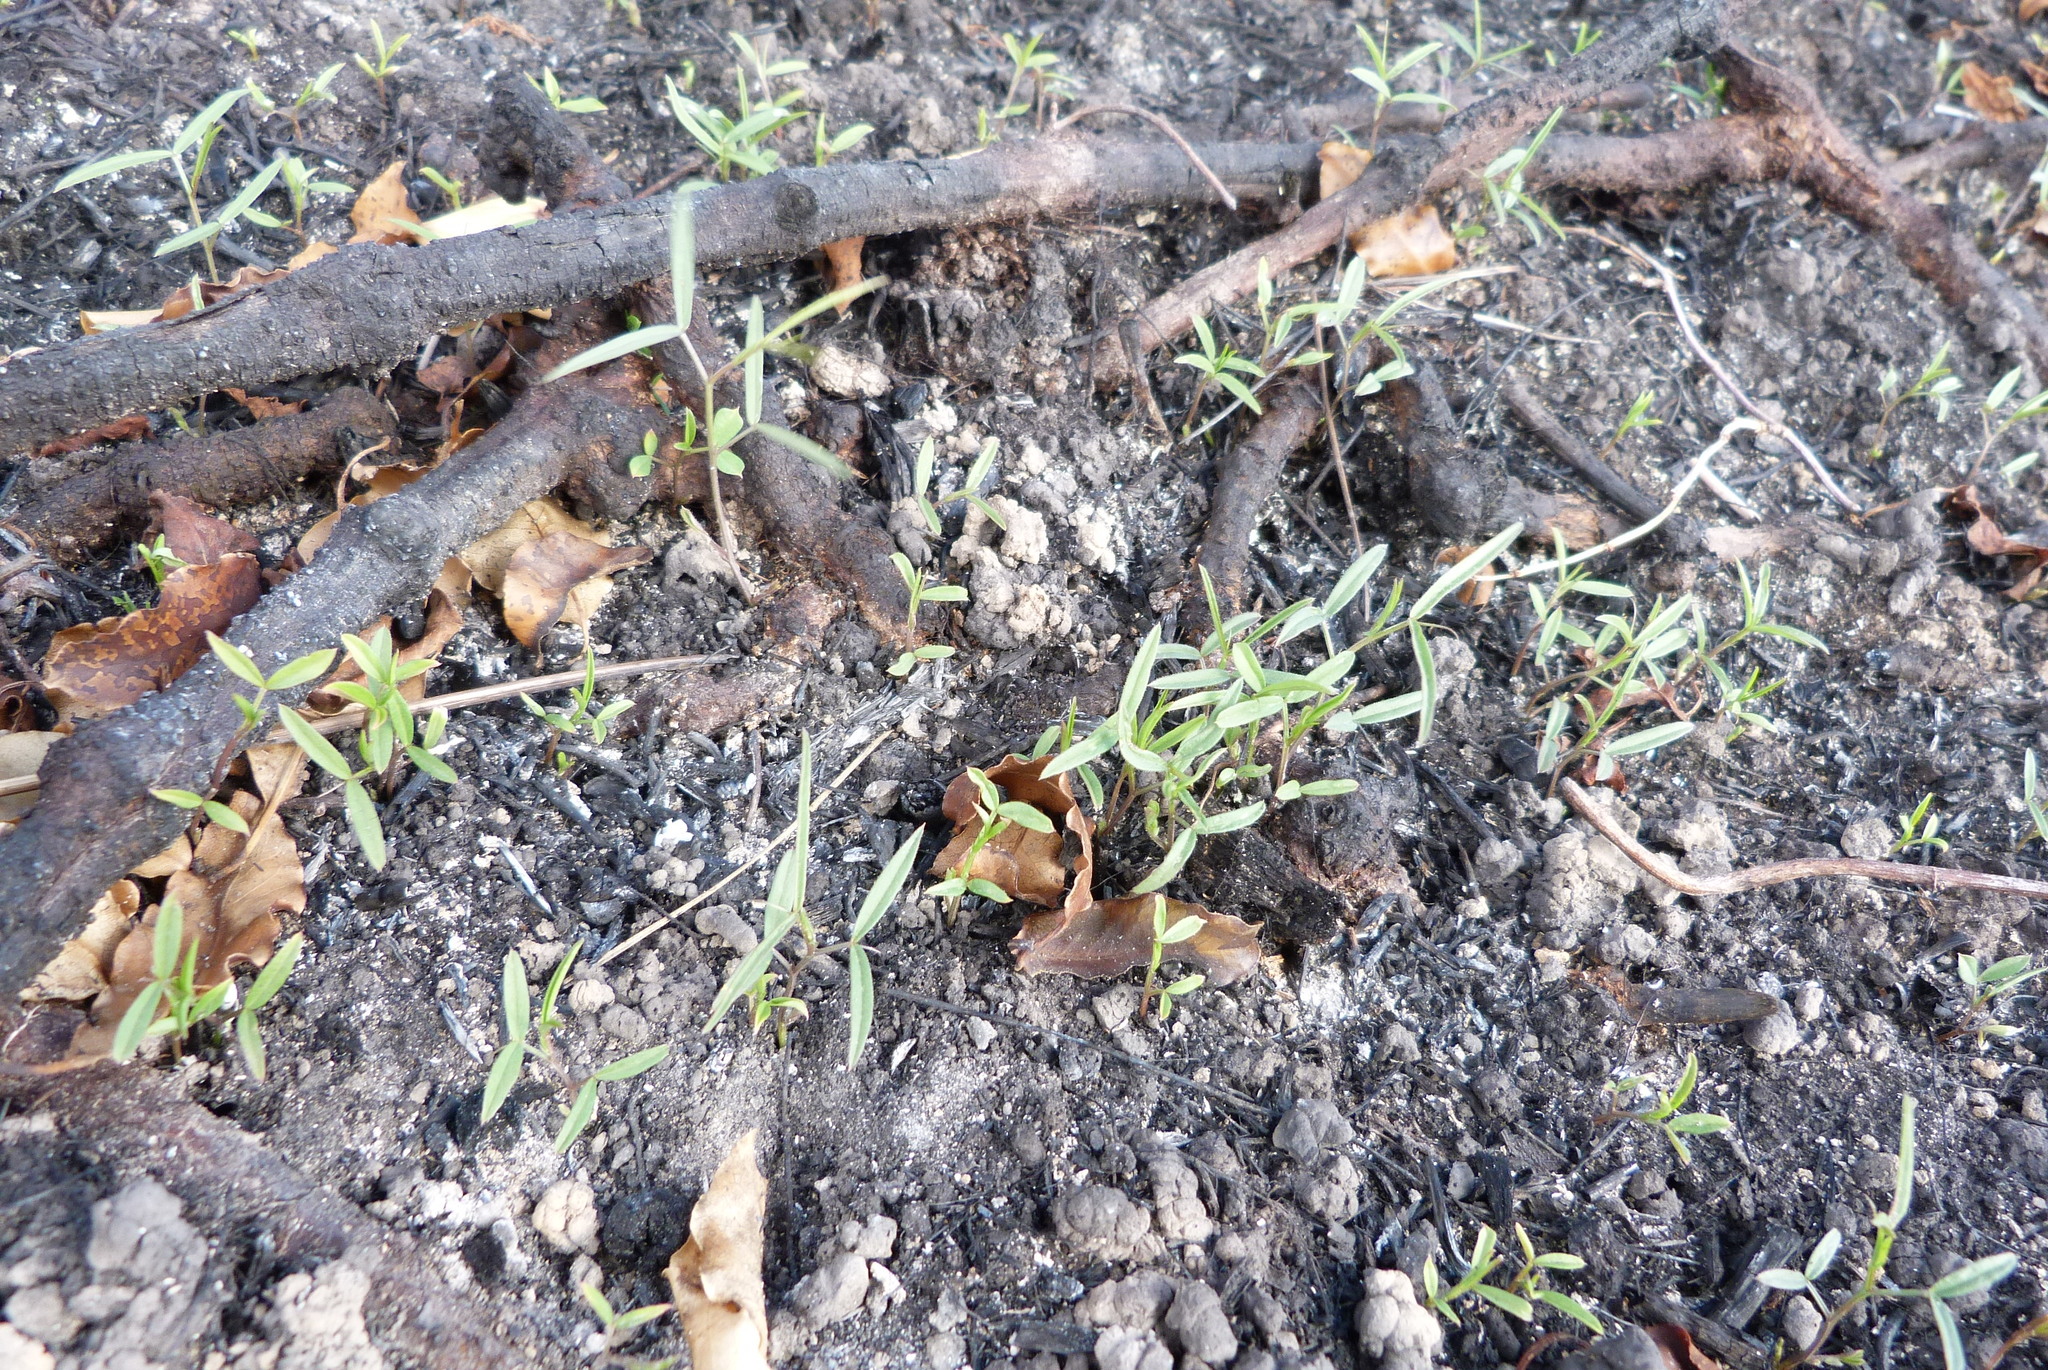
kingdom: Plantae
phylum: Tracheophyta
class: Magnoliopsida
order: Fabales
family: Fabaceae
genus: Vicia
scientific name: Vicia sativa
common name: Garden vetch
